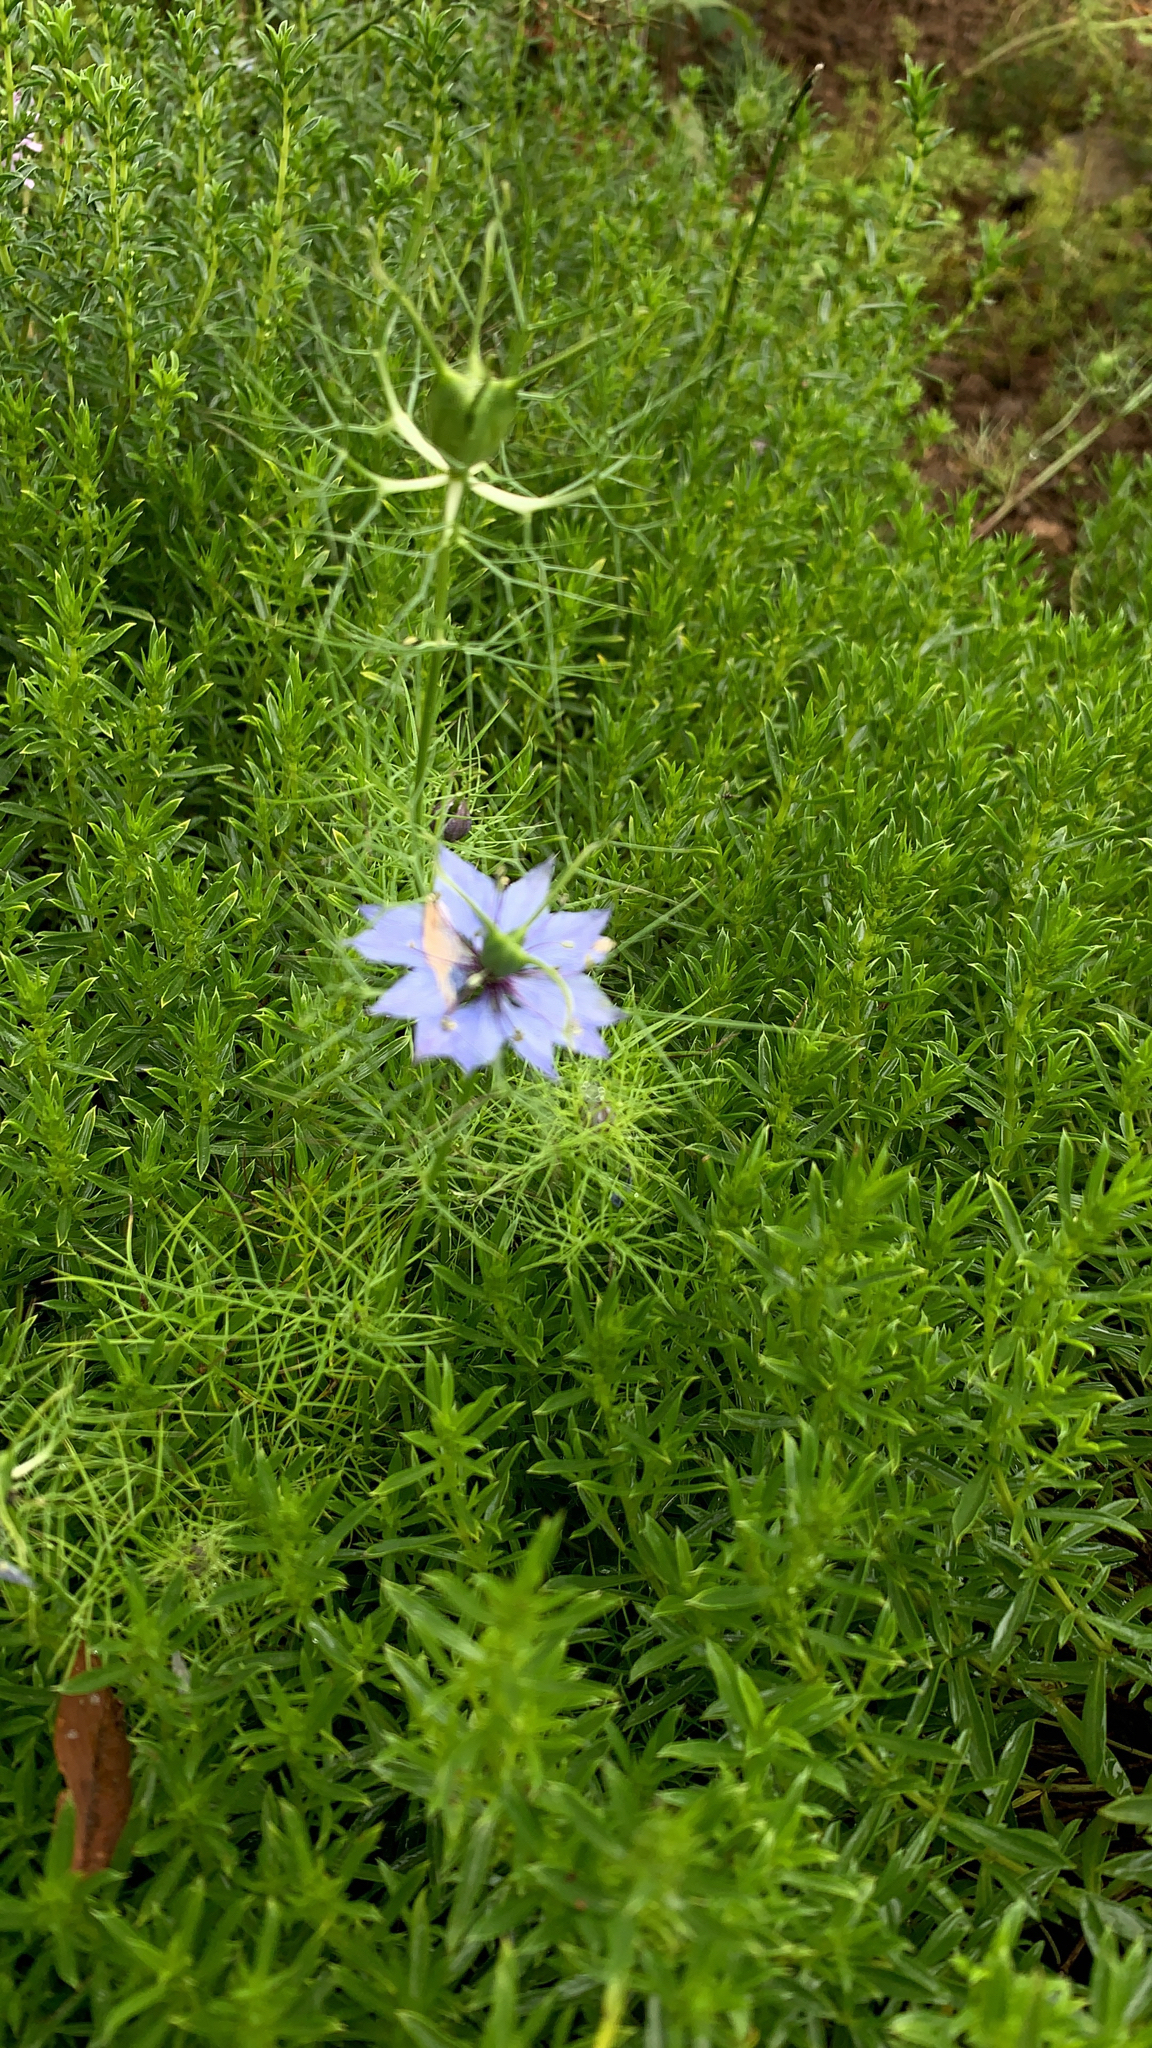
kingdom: Plantae
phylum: Tracheophyta
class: Magnoliopsida
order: Ranunculales
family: Ranunculaceae
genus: Nigella
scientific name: Nigella damascena
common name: Love-in-a-mist
